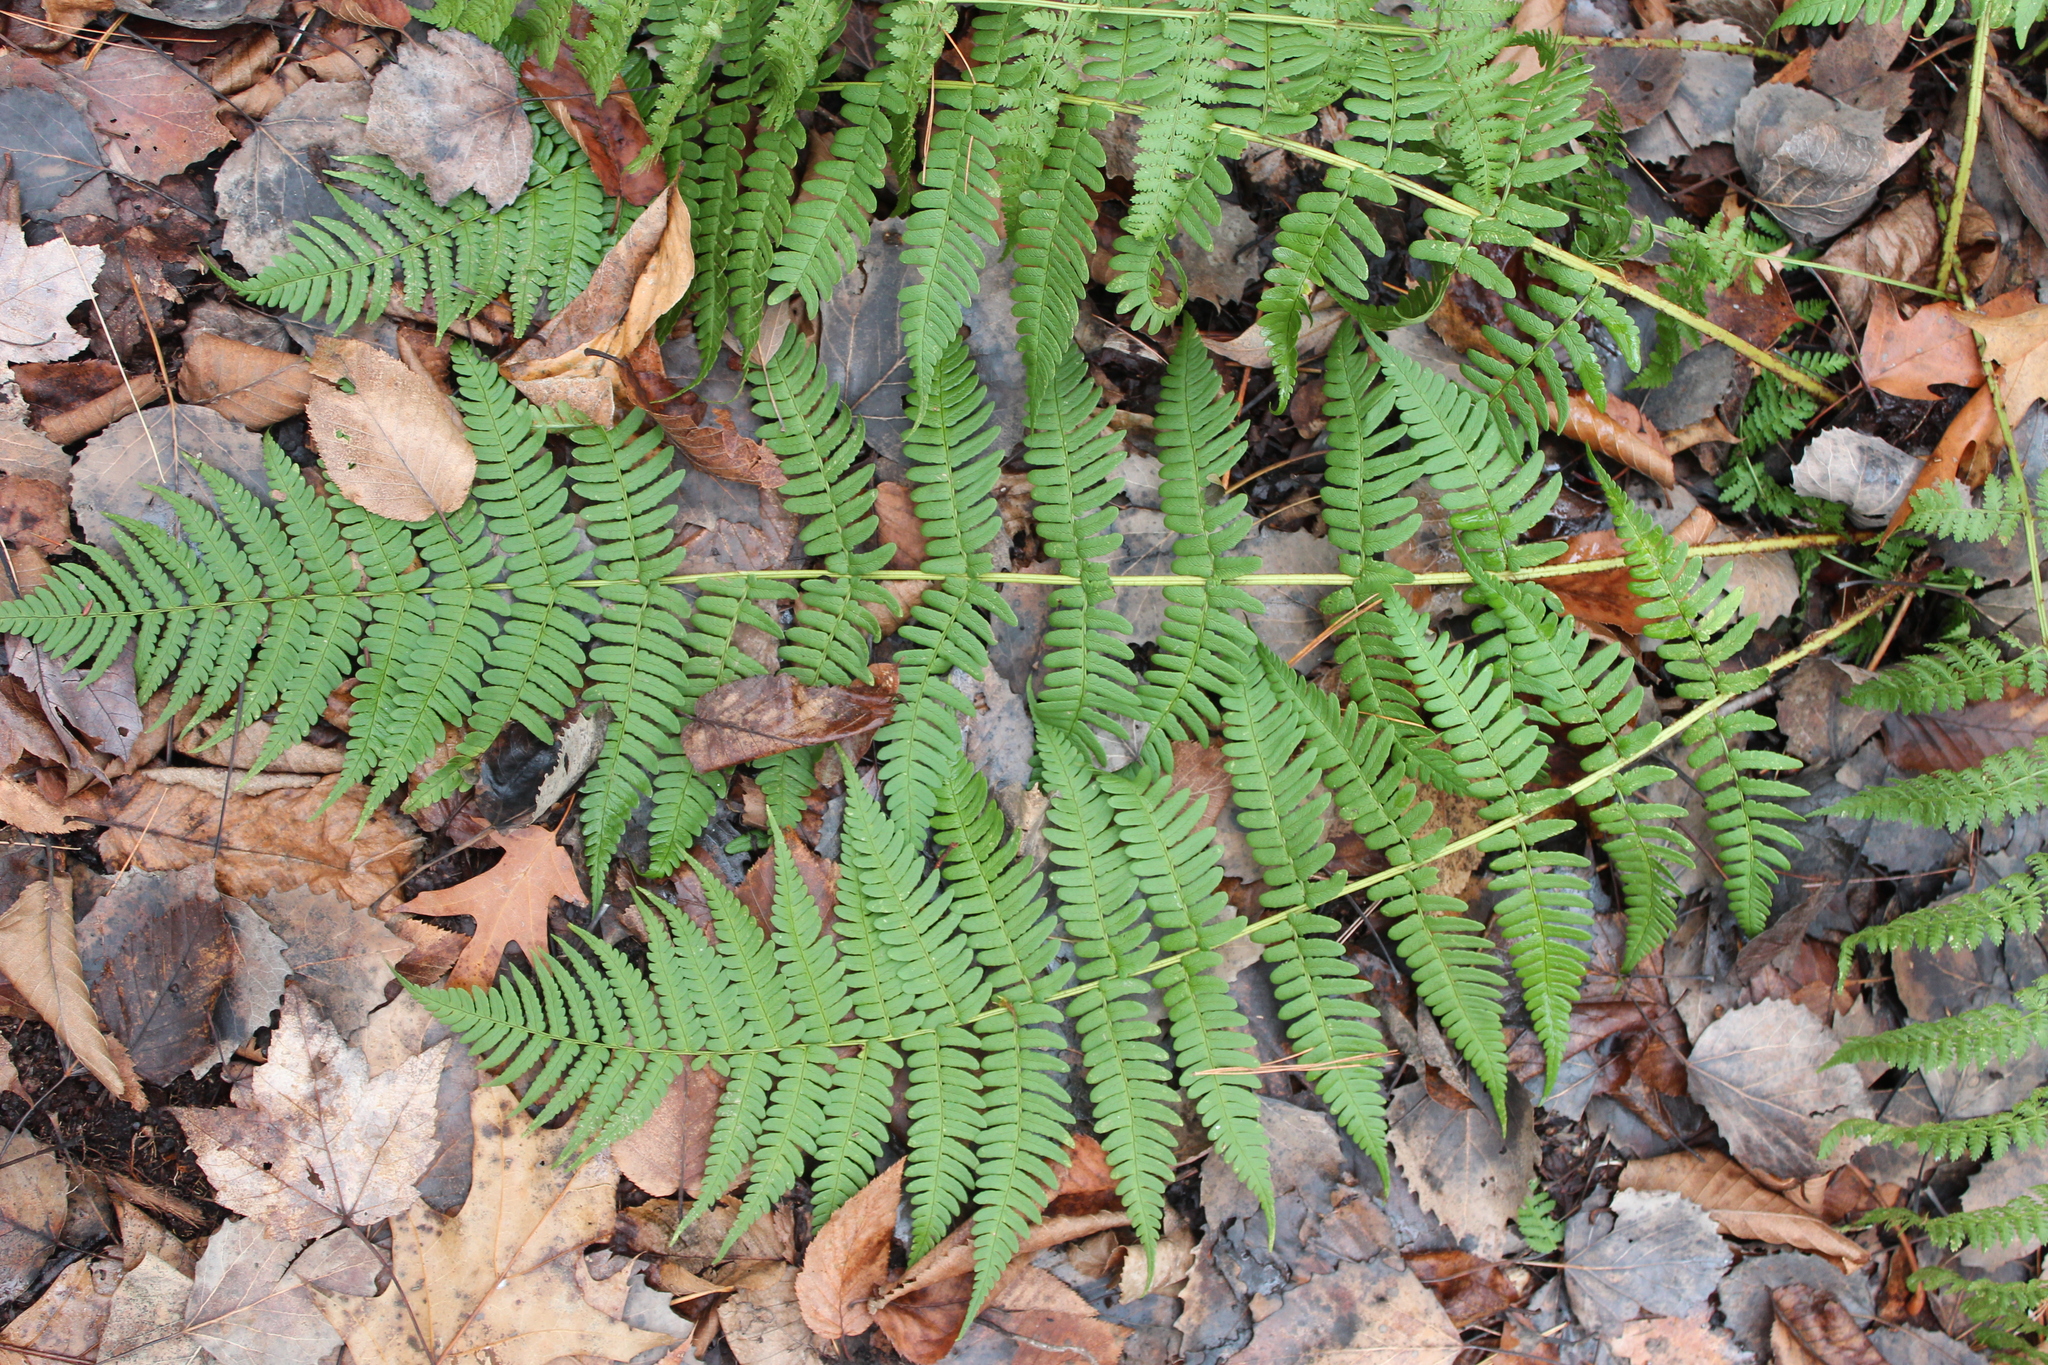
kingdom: Plantae
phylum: Tracheophyta
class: Polypodiopsida
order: Polypodiales
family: Dryopteridaceae
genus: Dryopteris
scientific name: Dryopteris marginalis
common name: Marginal wood fern
